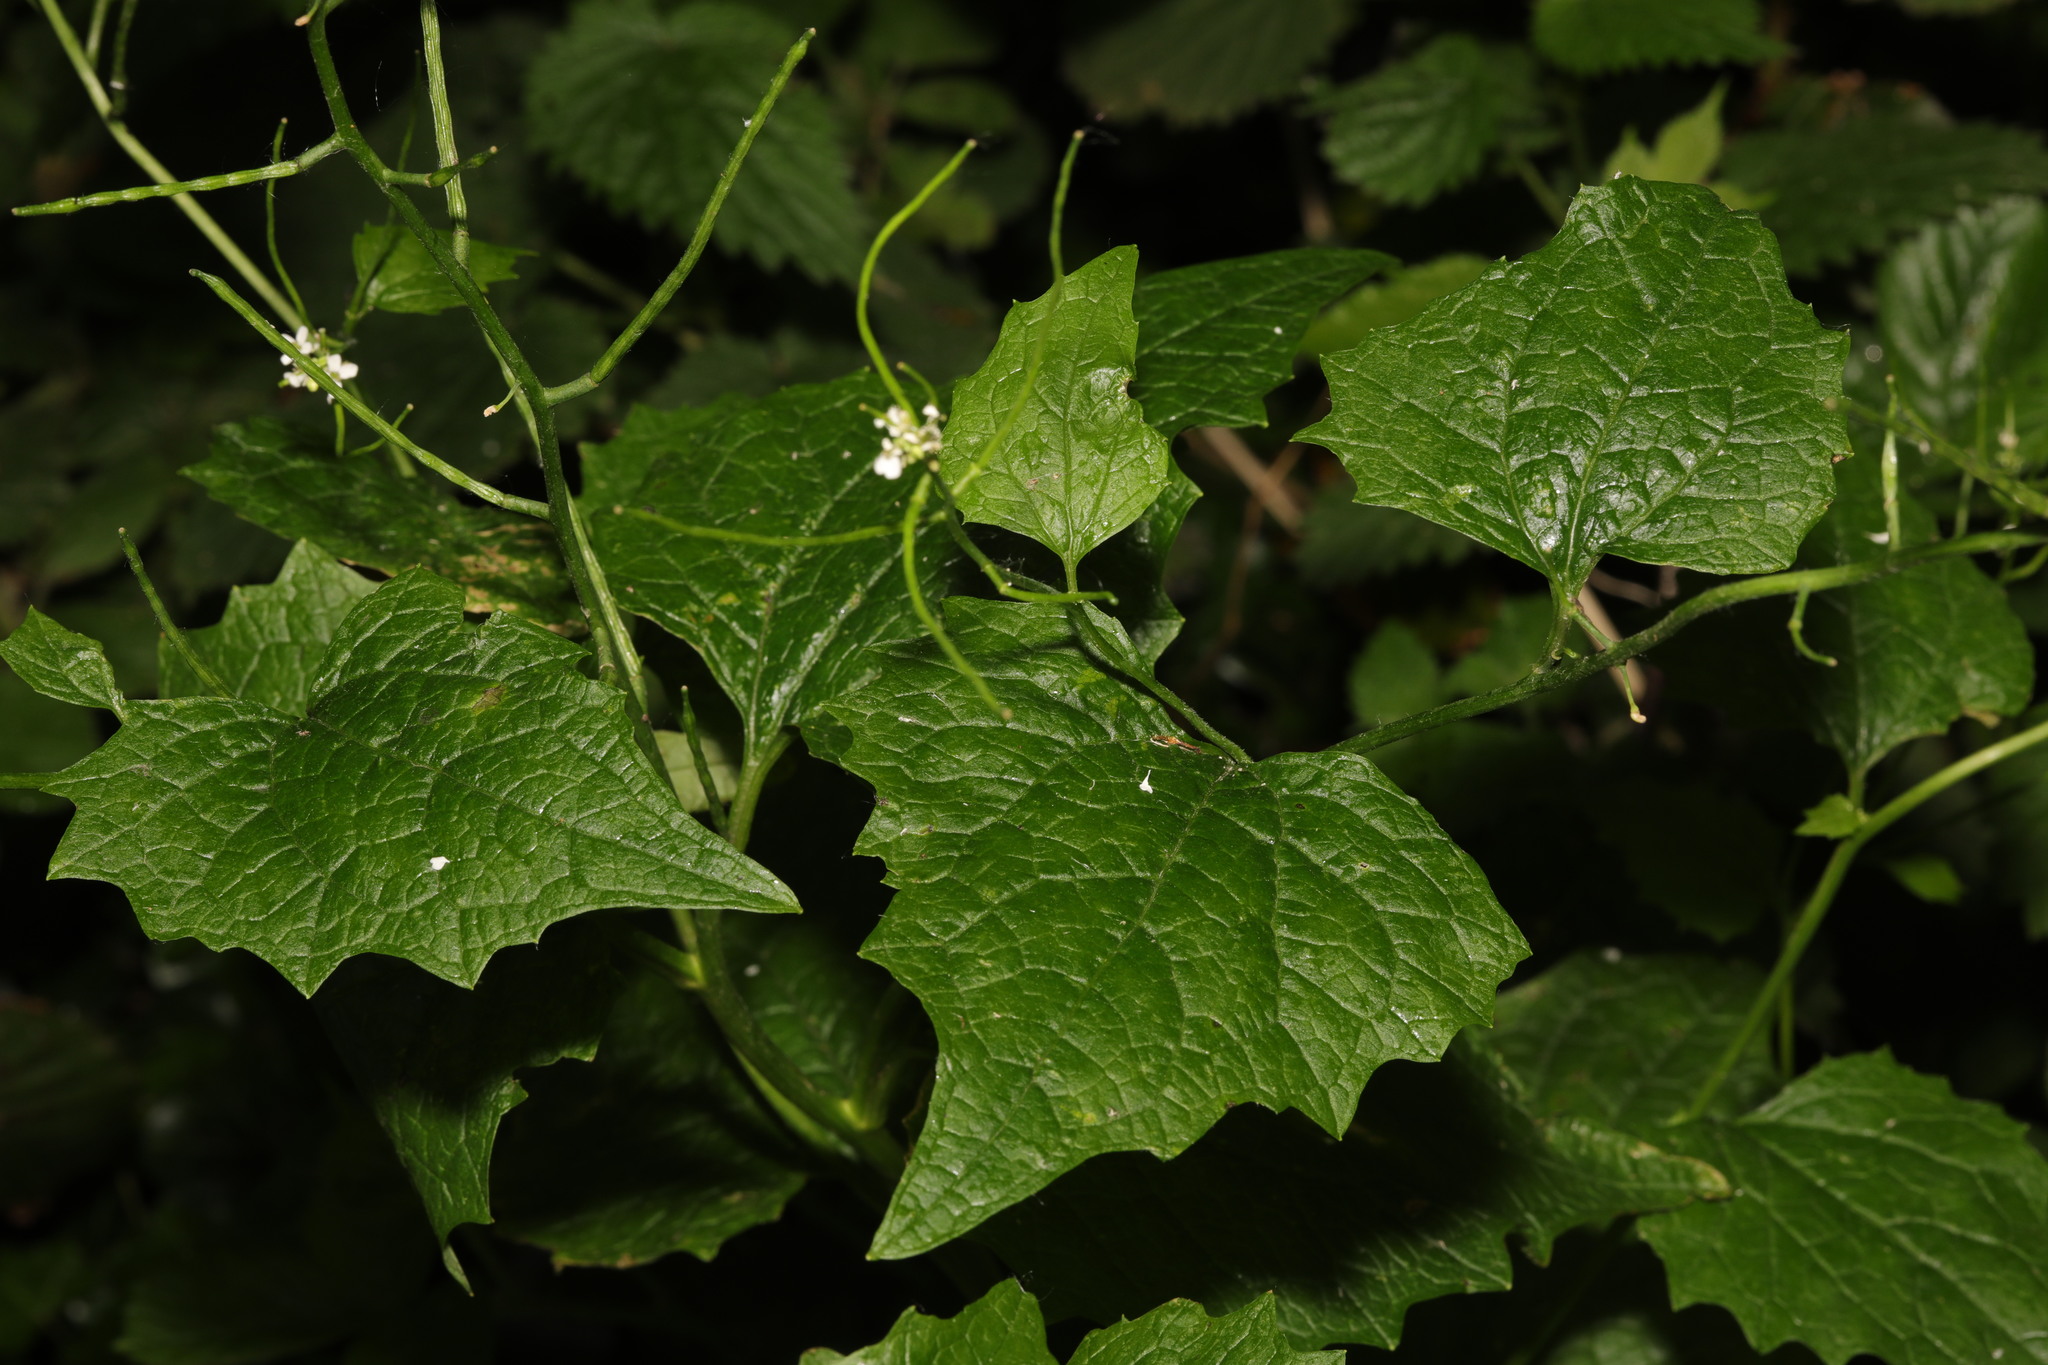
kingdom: Plantae
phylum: Tracheophyta
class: Magnoliopsida
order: Brassicales
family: Brassicaceae
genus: Alliaria
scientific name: Alliaria petiolata
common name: Garlic mustard
